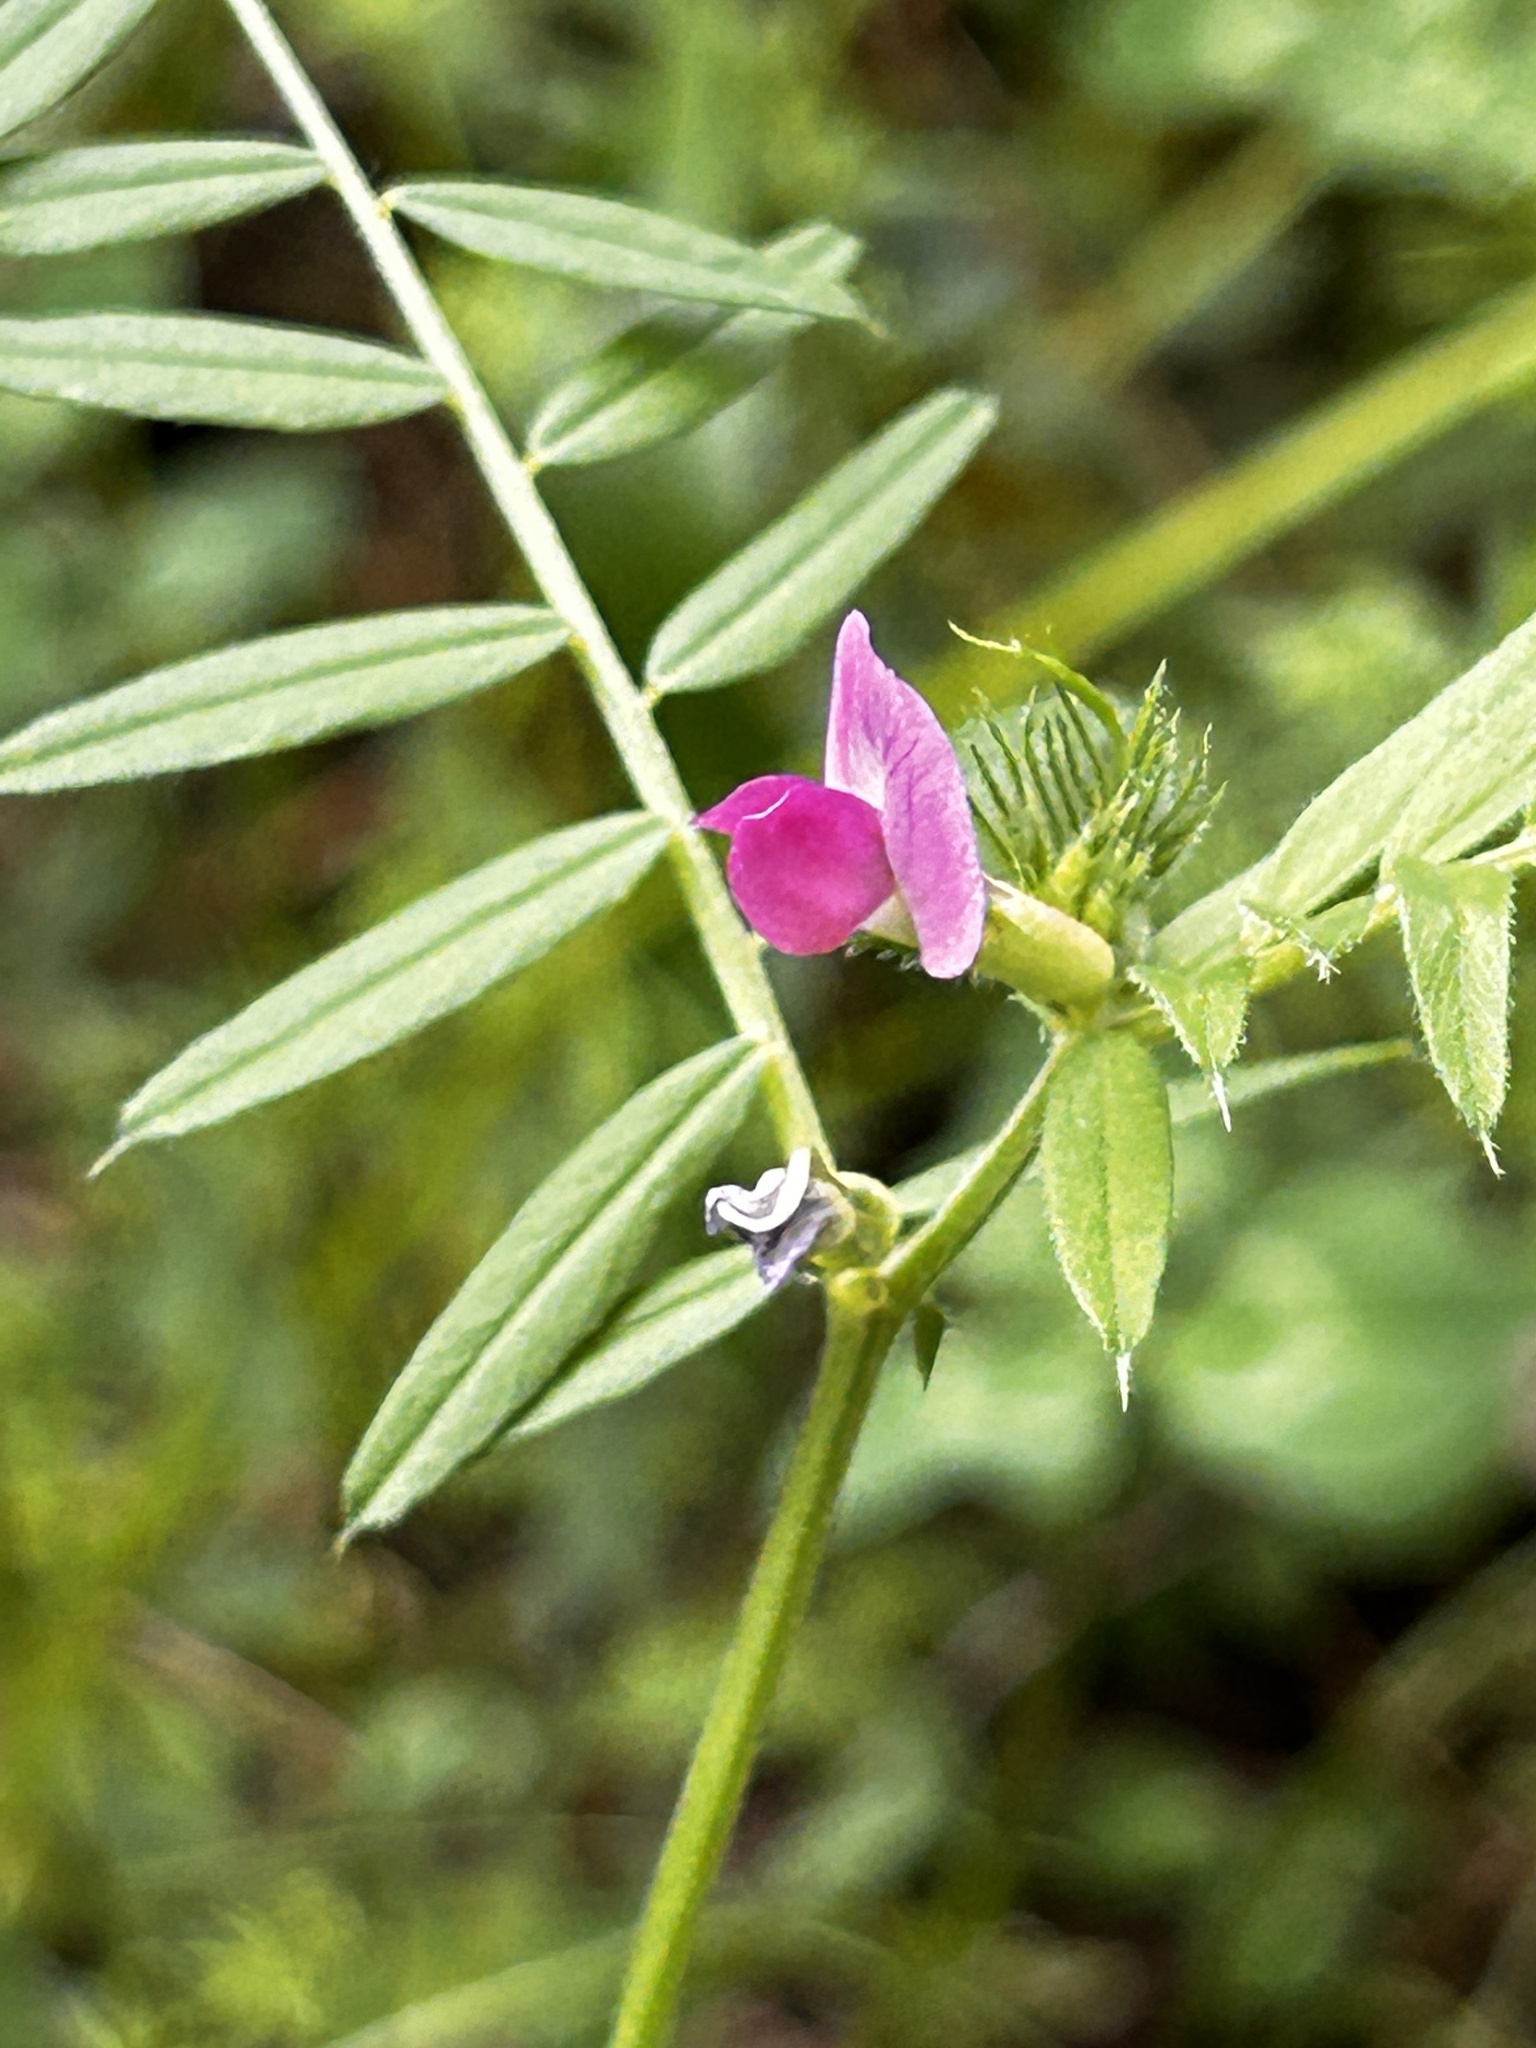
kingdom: Plantae
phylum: Tracheophyta
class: Magnoliopsida
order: Fabales
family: Fabaceae
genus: Vicia
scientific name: Vicia sativa
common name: Garden vetch
